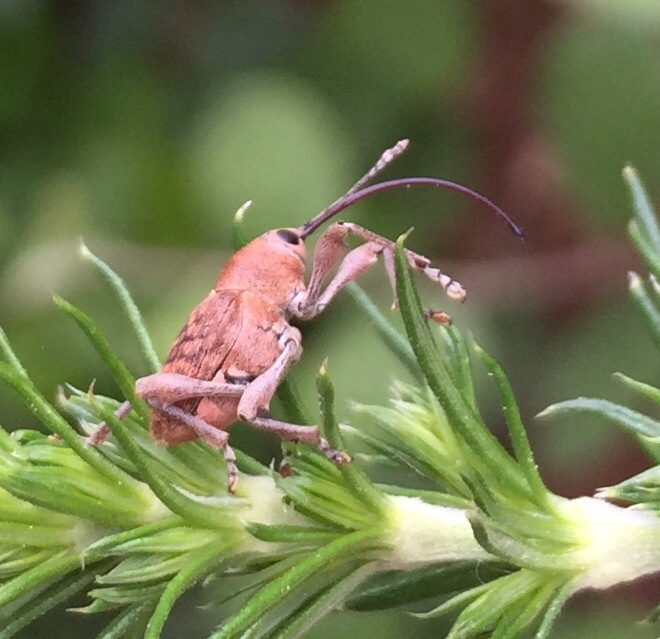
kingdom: Animalia
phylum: Arthropoda
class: Insecta
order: Coleoptera
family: Curculionidae
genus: Curculio
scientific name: Curculio glandium
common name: Acorn weevil
